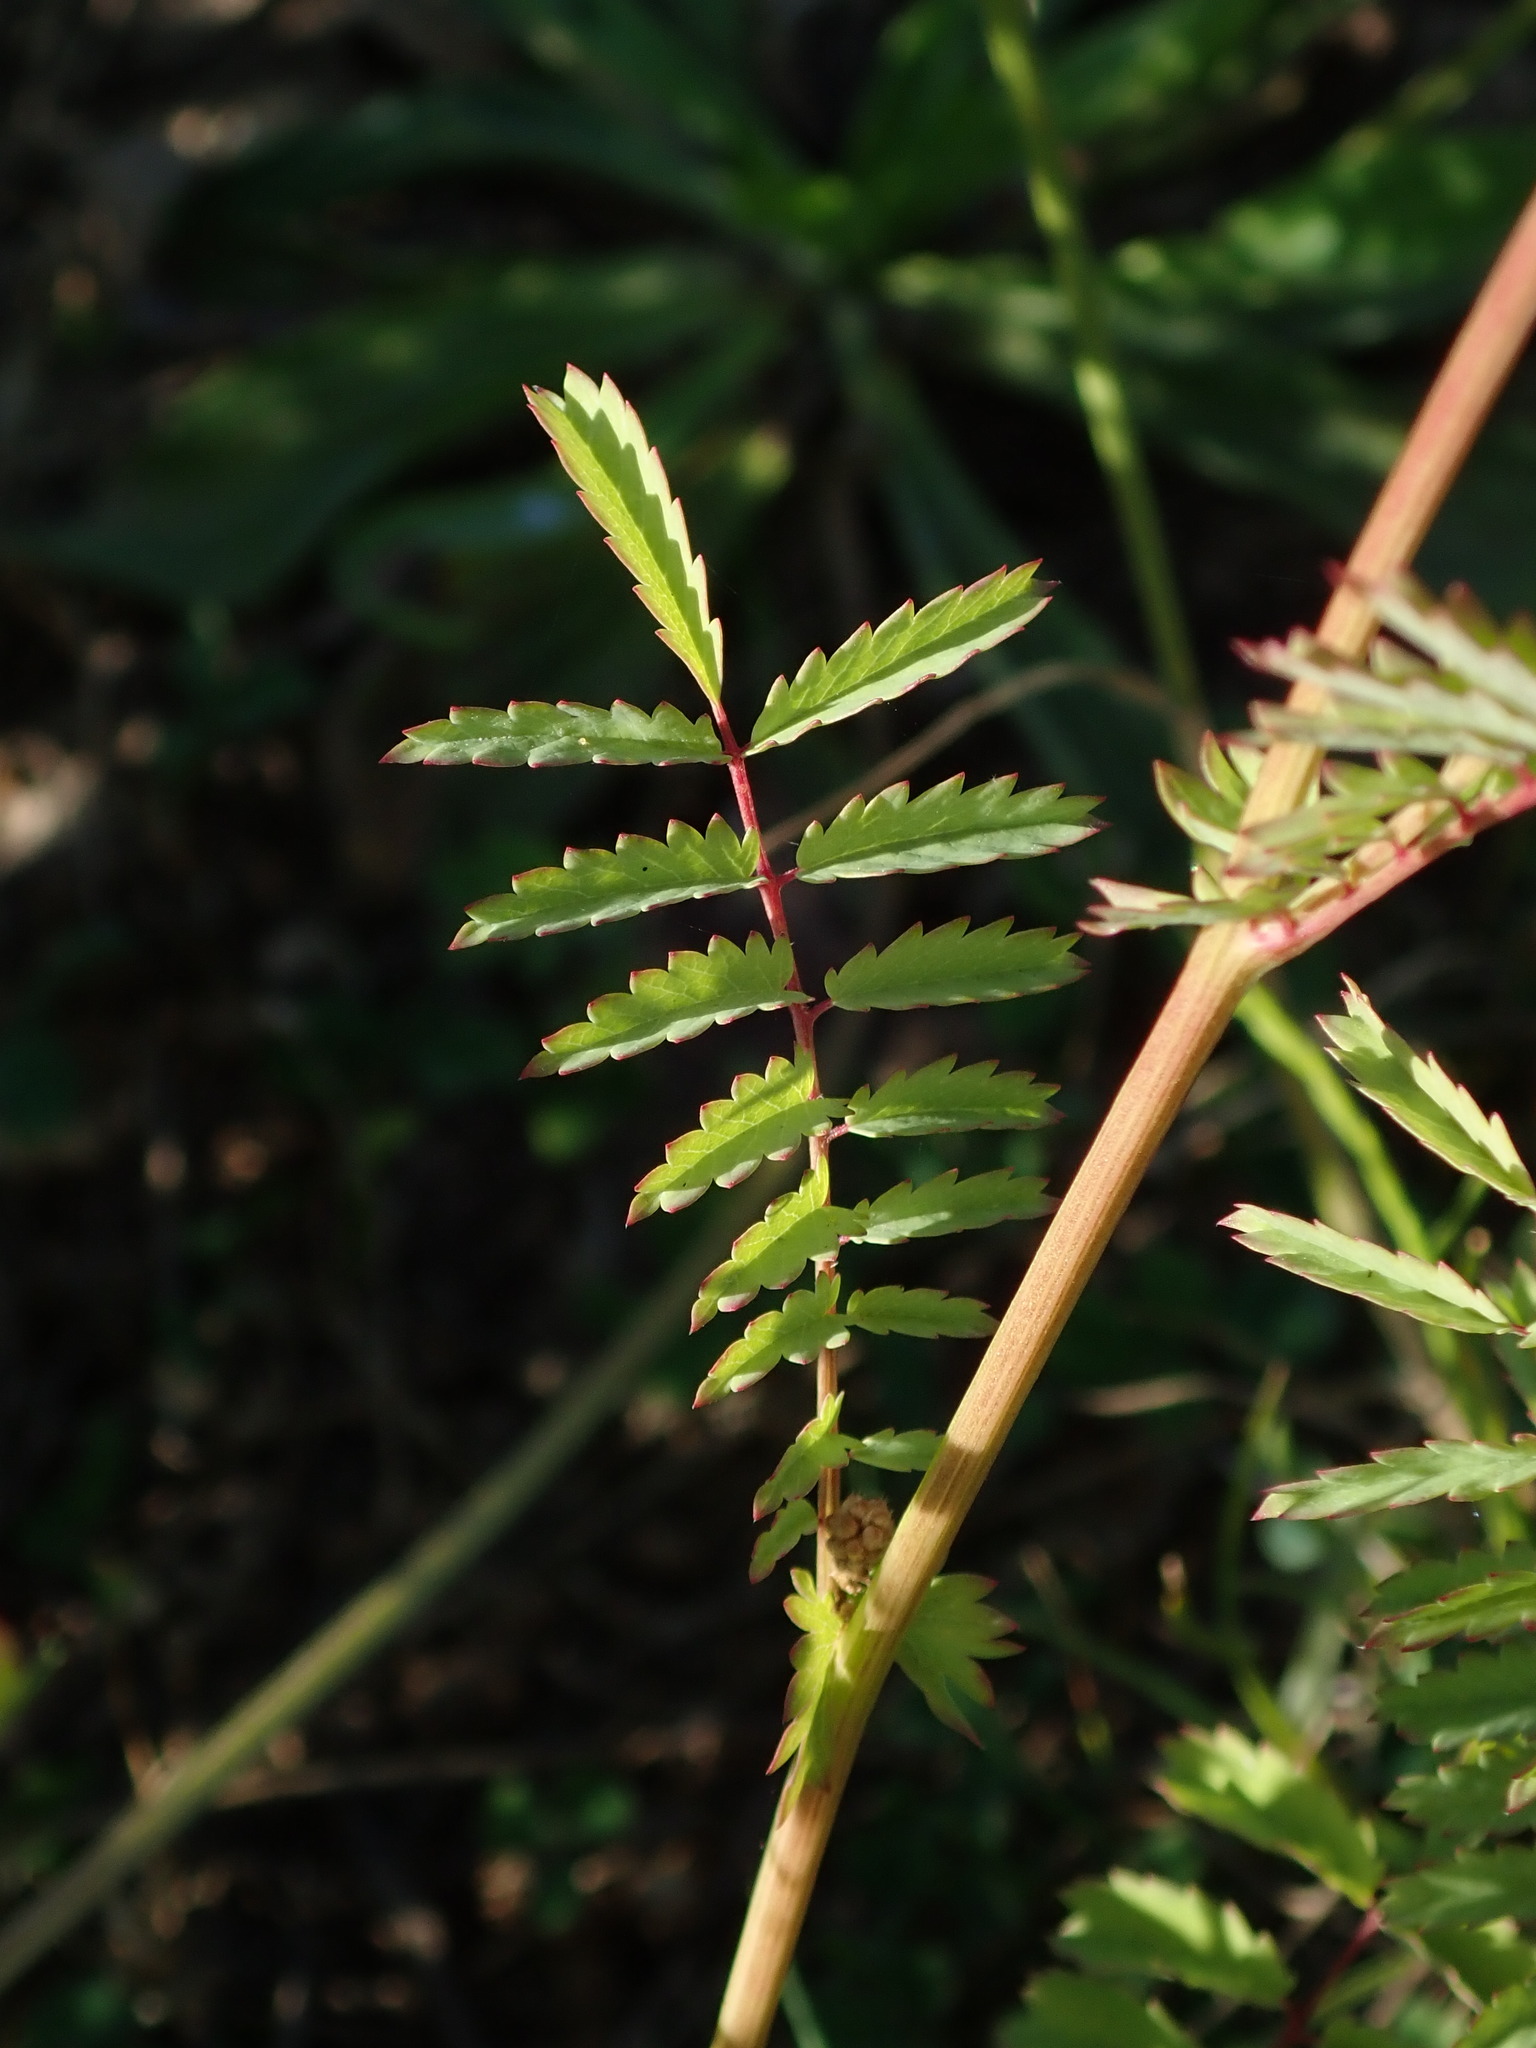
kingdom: Plantae
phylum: Tracheophyta
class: Magnoliopsida
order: Rosales
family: Rosaceae
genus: Poterium
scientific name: Poterium sanguisorba
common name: Salad burnet
